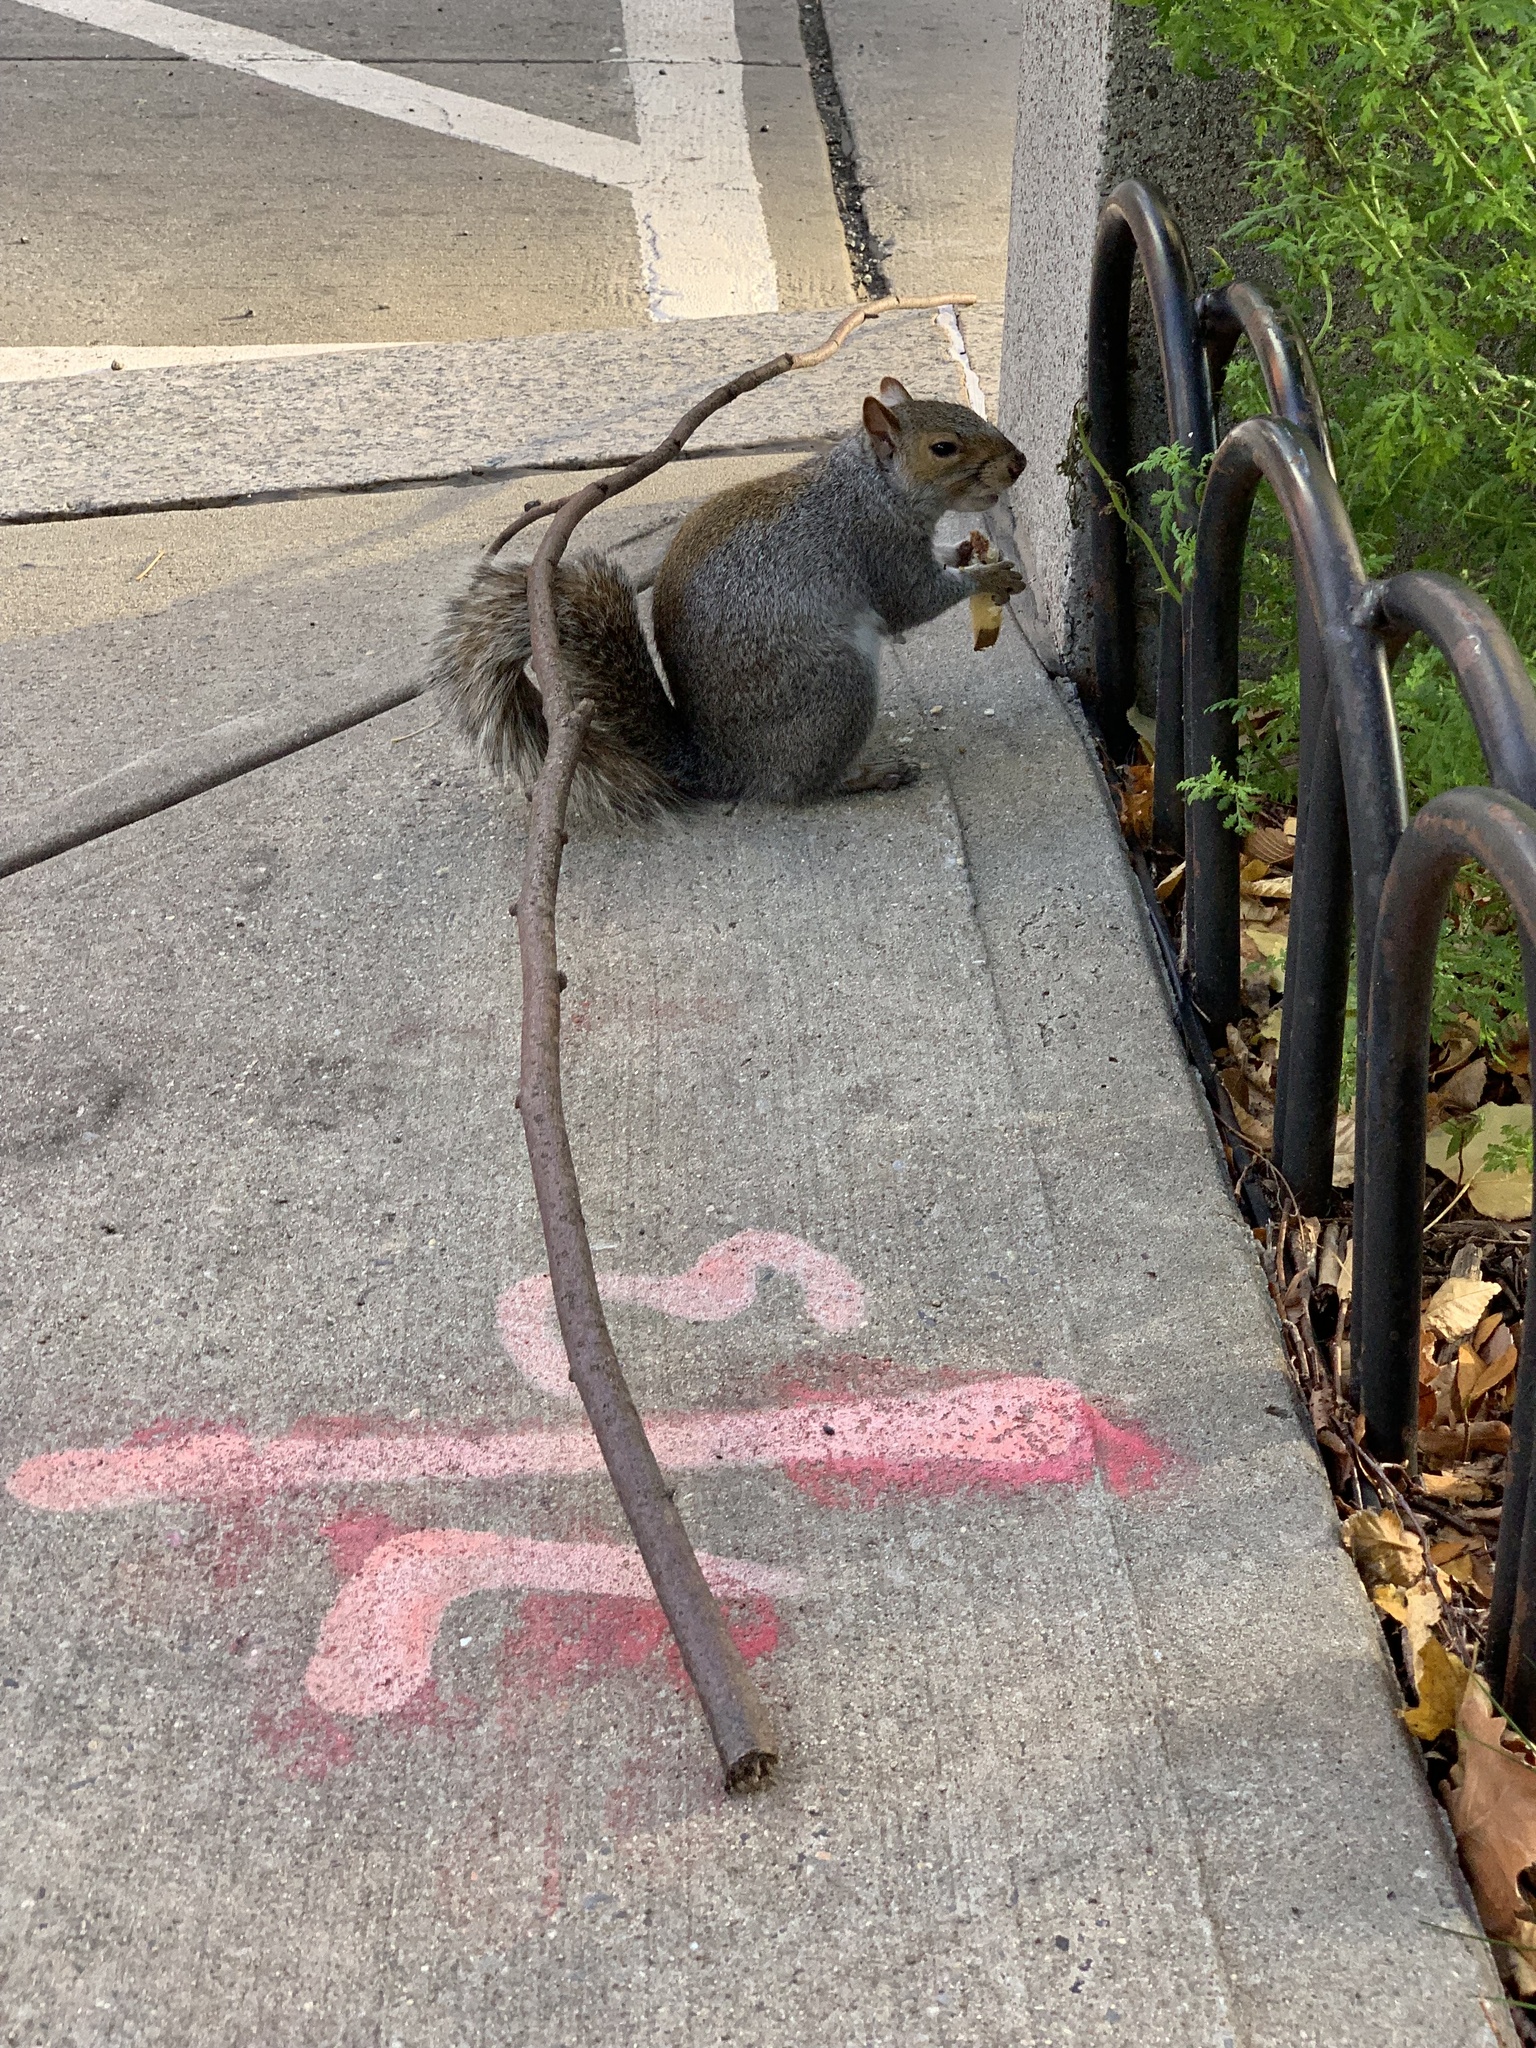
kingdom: Animalia
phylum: Chordata
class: Mammalia
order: Rodentia
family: Sciuridae
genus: Sciurus
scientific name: Sciurus carolinensis
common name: Eastern gray squirrel
